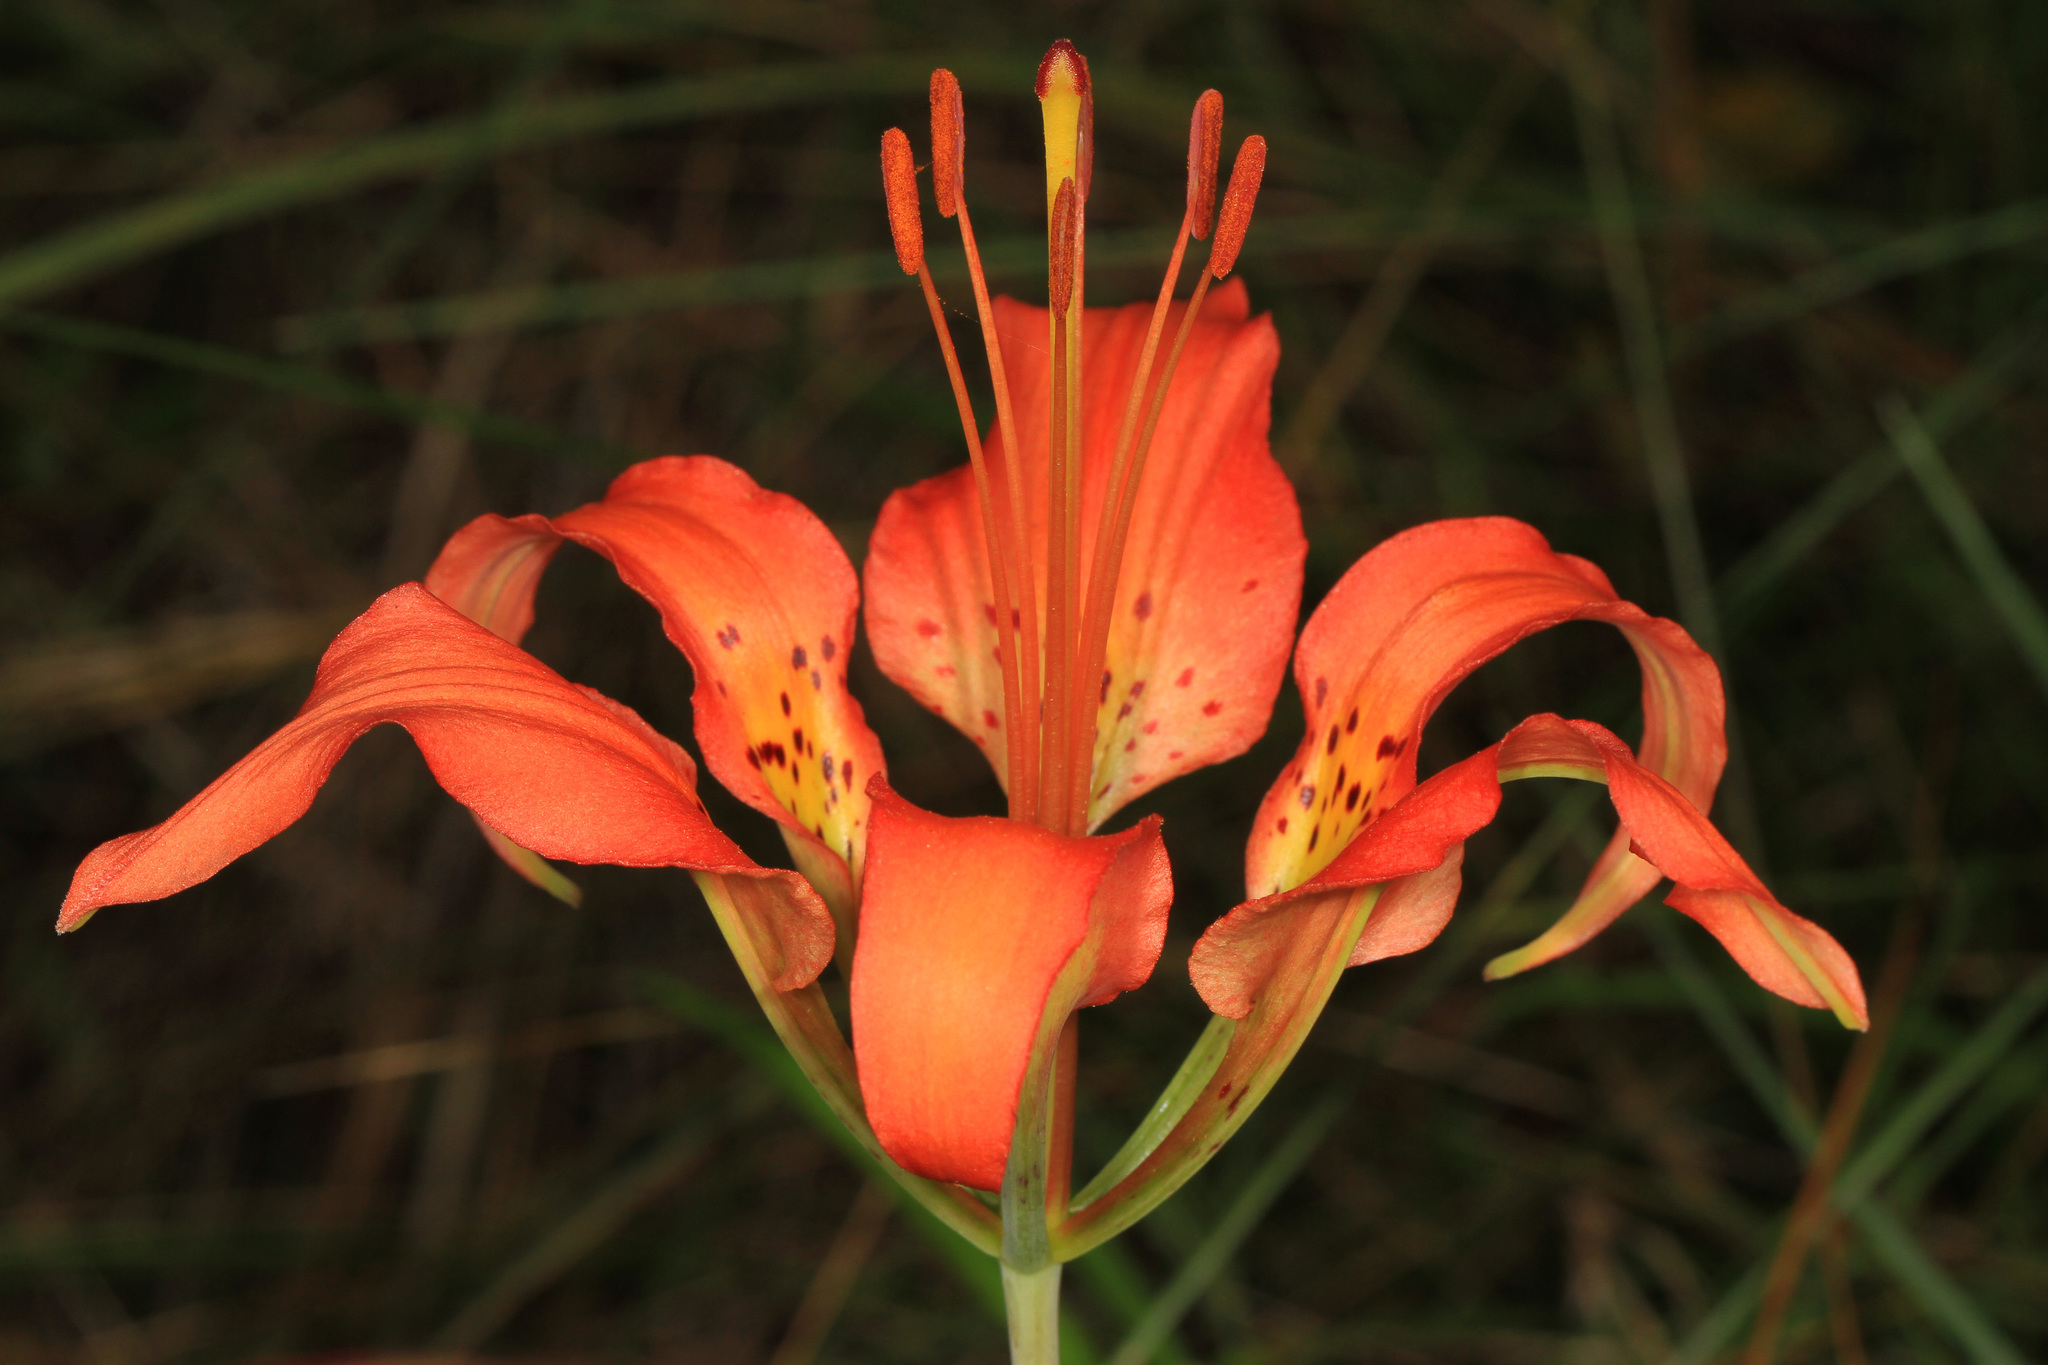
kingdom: Plantae
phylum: Tracheophyta
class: Liliopsida
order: Liliales
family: Liliaceae
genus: Lilium
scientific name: Lilium catesbaei
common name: Catesby's lily
